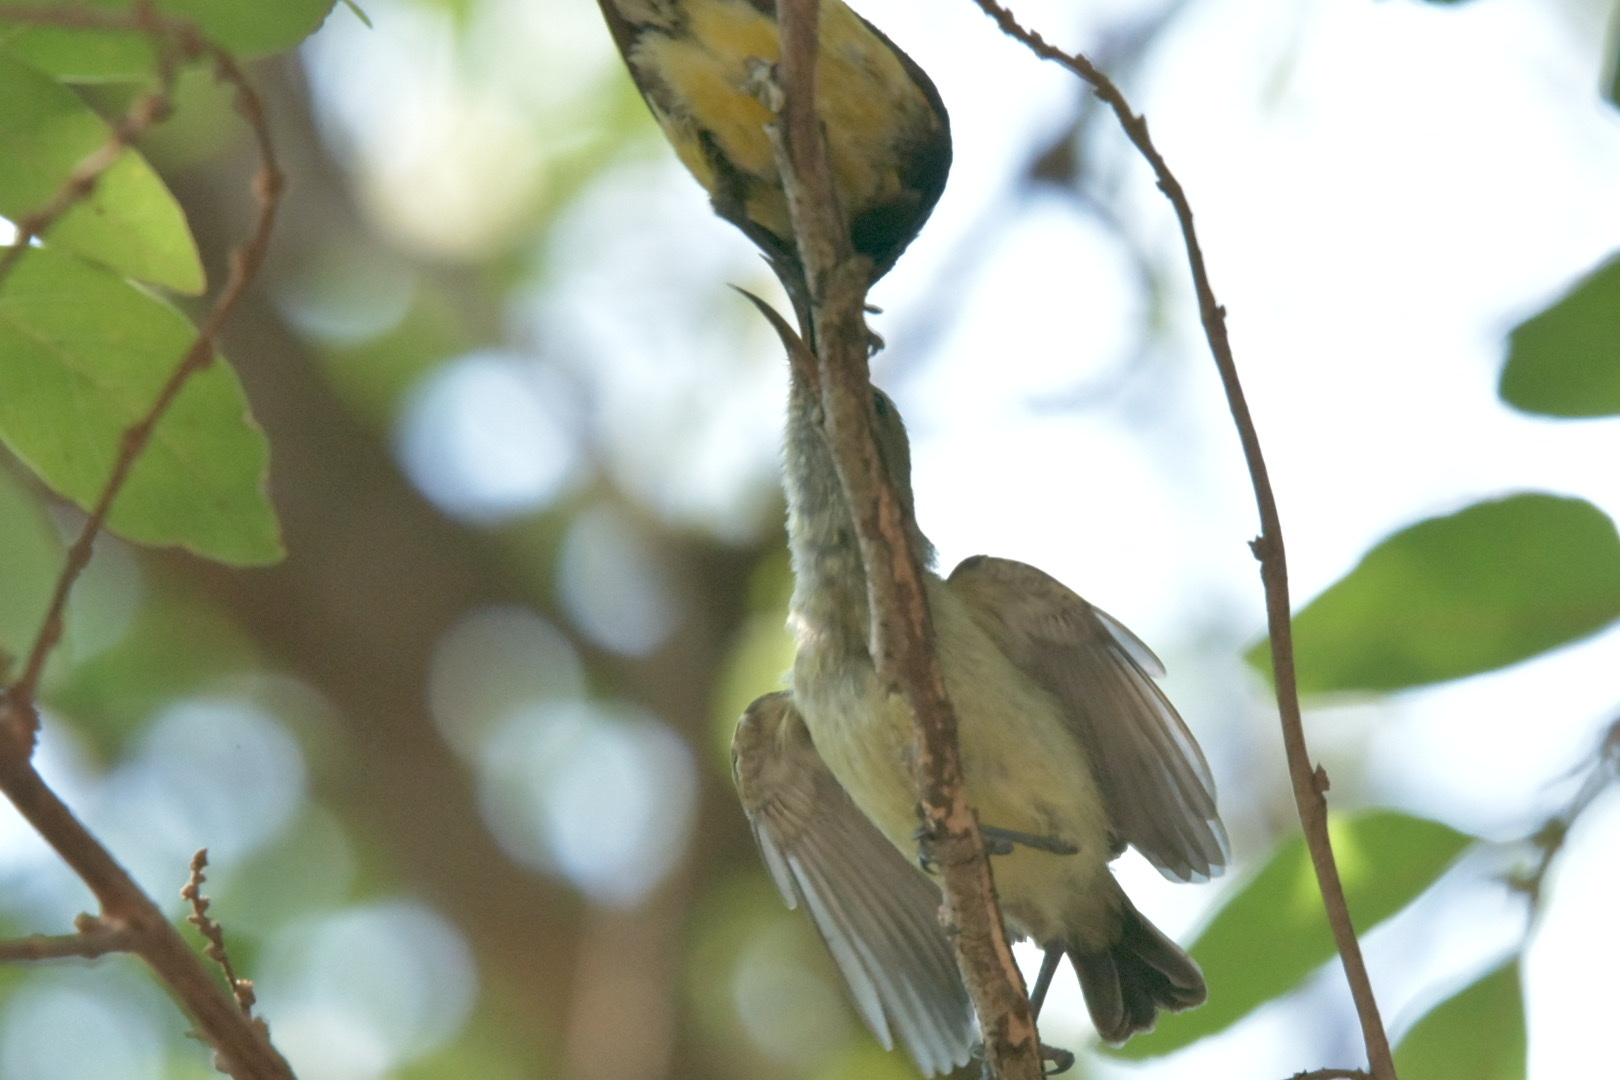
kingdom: Animalia
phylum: Chordata
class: Aves
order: Passeriformes
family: Nectariniidae
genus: Cinnyris
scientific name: Cinnyris venustus
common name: Variable sunbird
